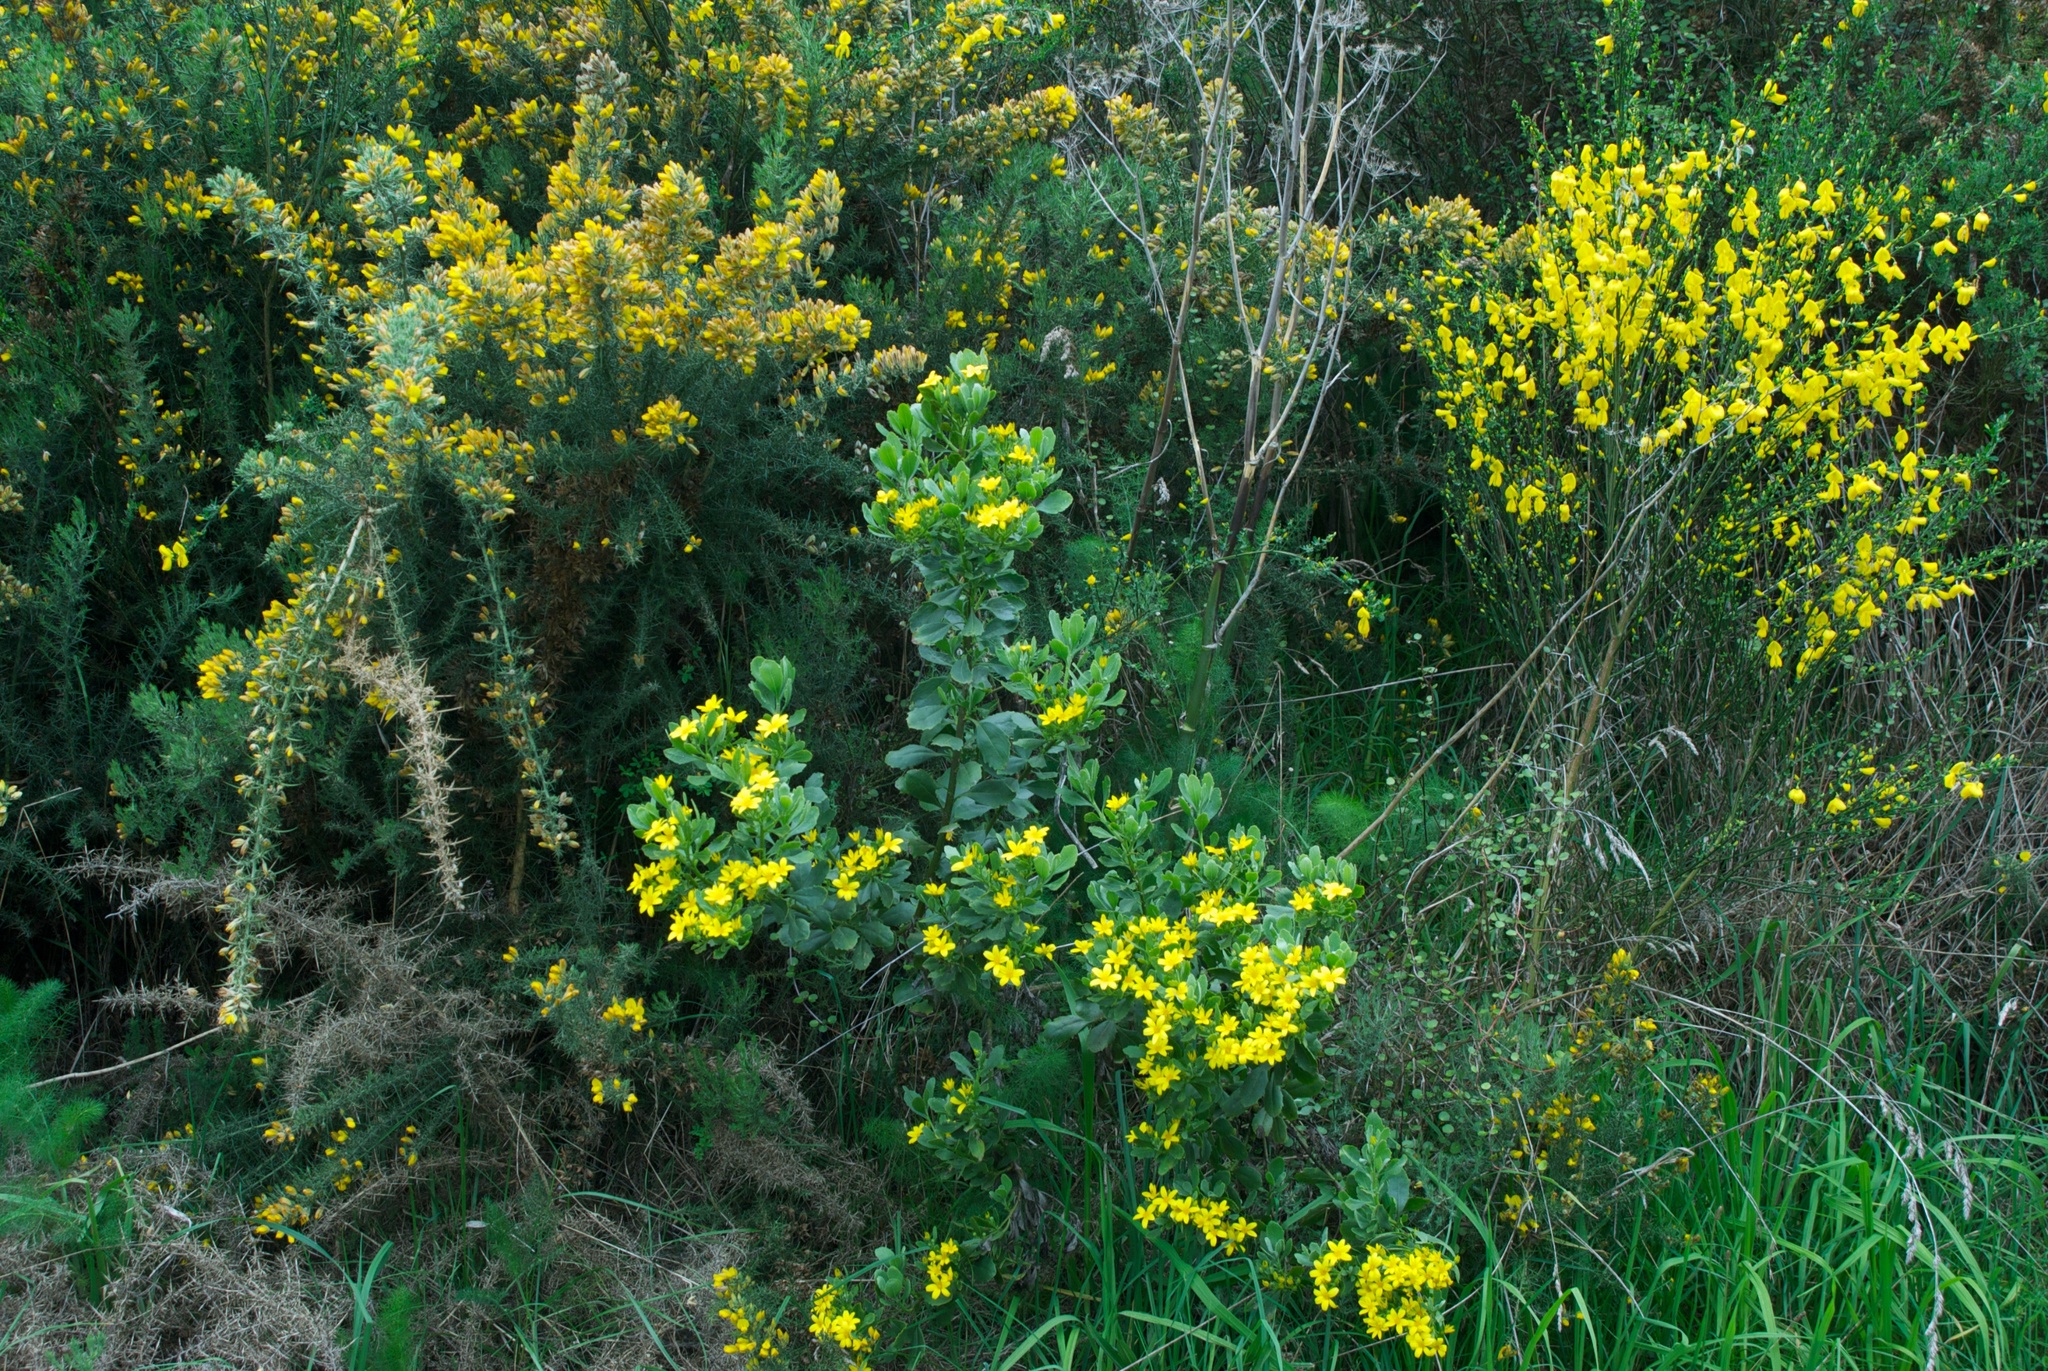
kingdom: Plantae
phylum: Tracheophyta
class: Magnoliopsida
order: Fabales
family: Fabaceae
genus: Ulex
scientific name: Ulex europaeus
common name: Common gorse
